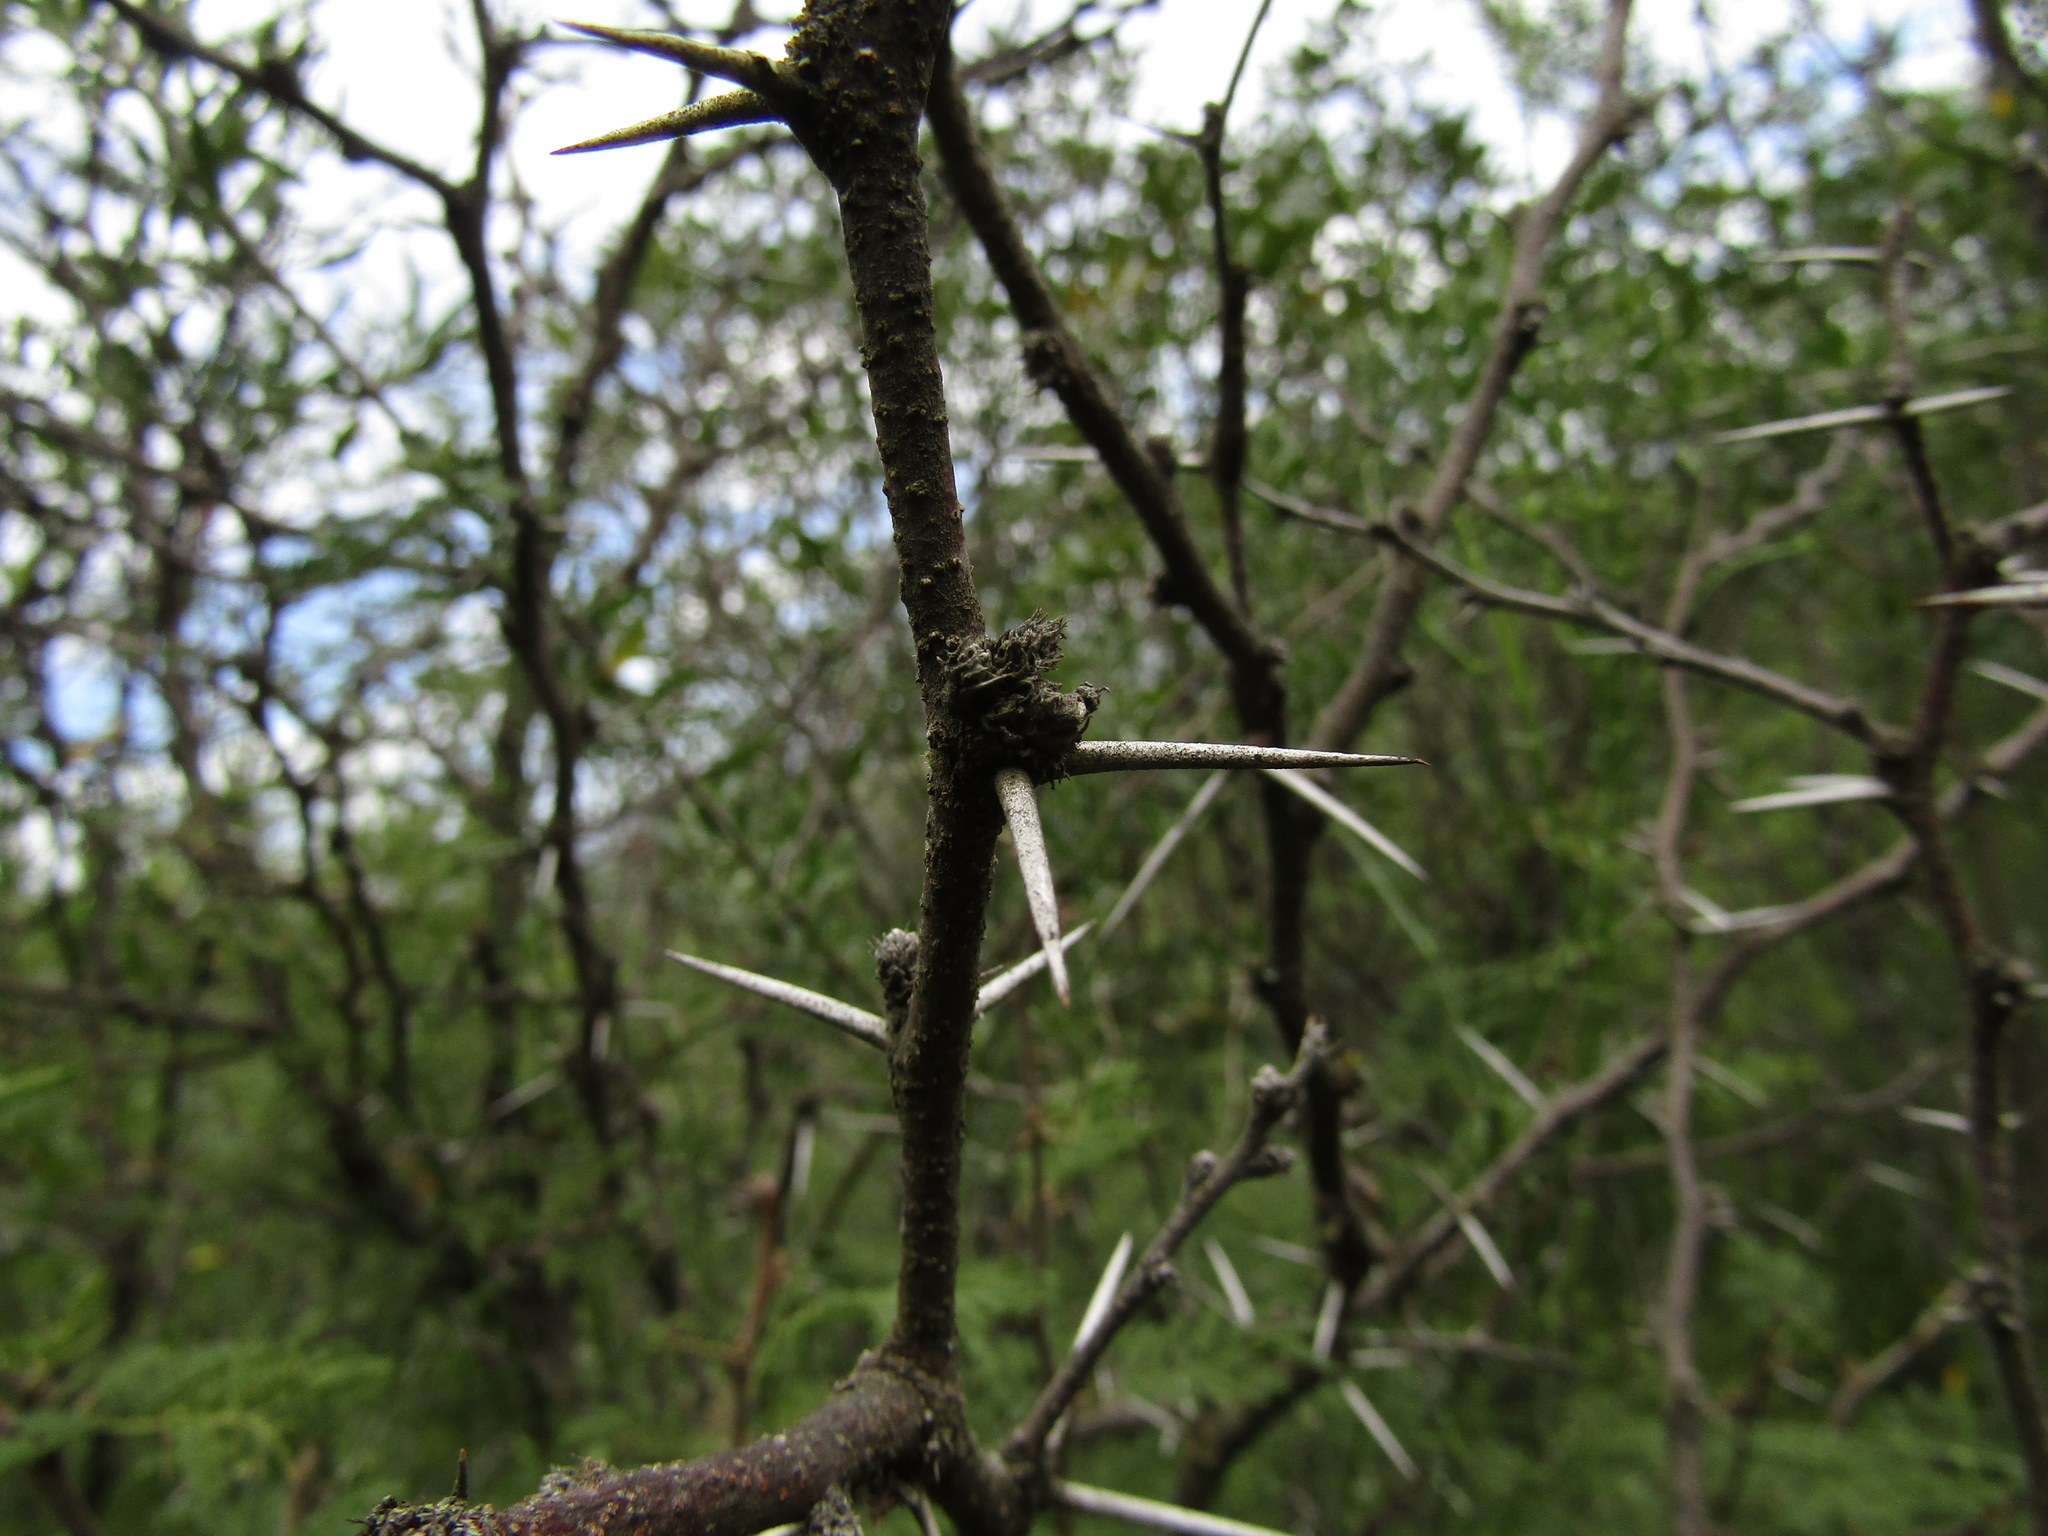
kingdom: Plantae
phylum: Tracheophyta
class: Magnoliopsida
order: Fabales
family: Fabaceae
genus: Vachellia
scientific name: Vachellia caven
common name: Roman cassie
